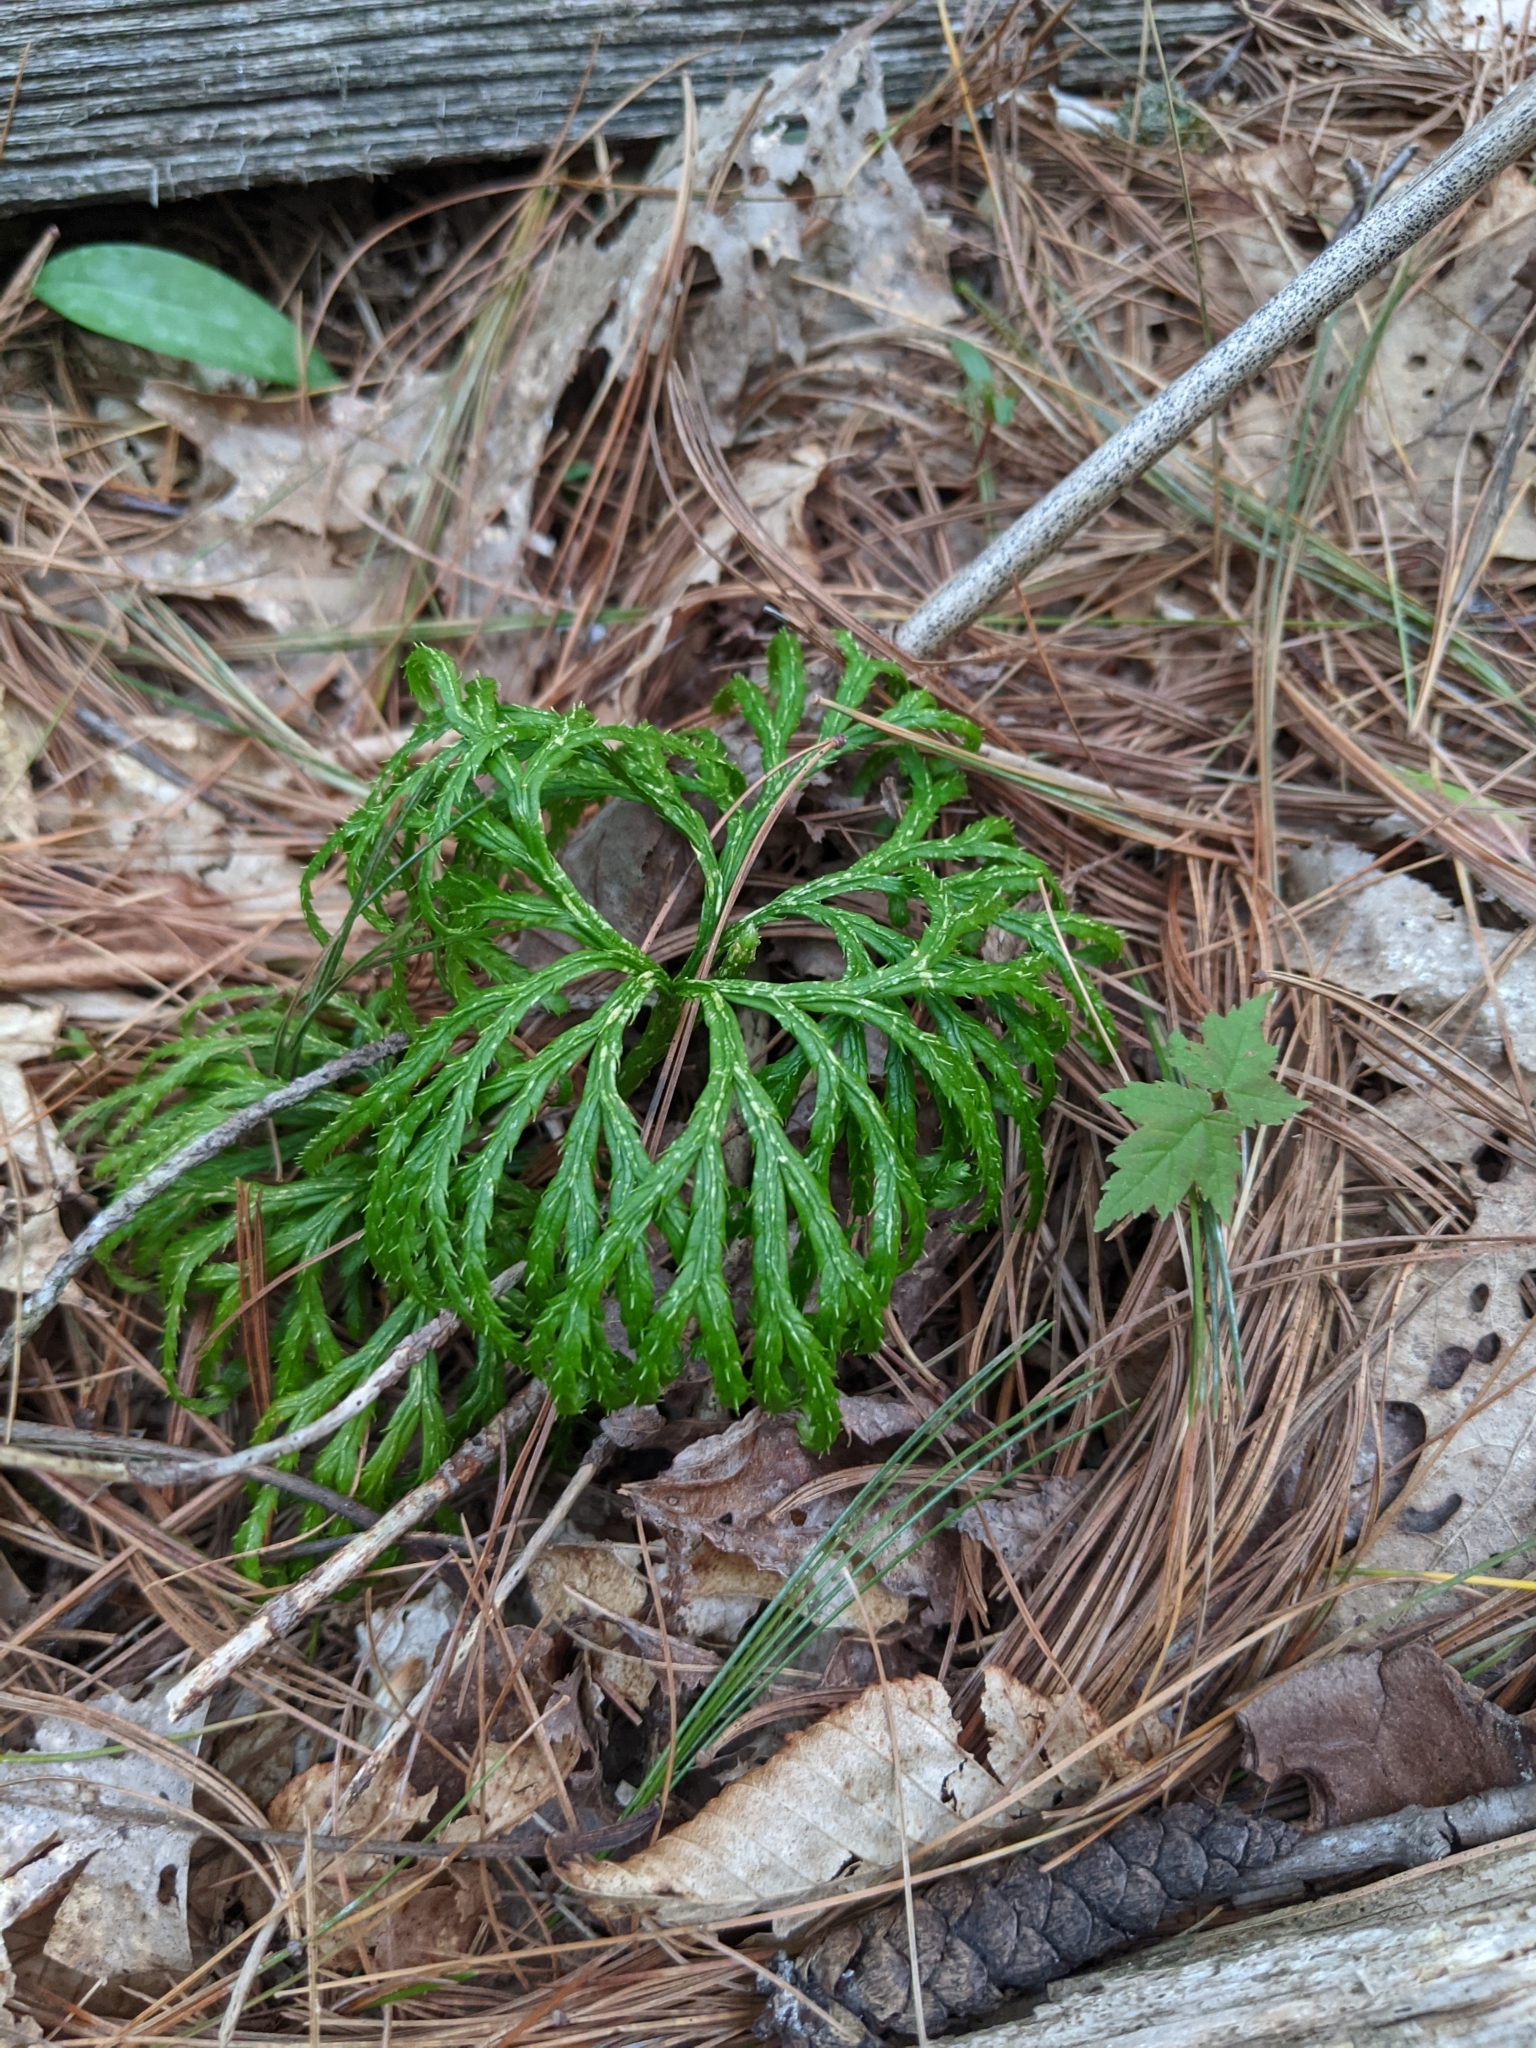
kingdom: Plantae
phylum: Tracheophyta
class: Lycopodiopsida
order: Lycopodiales
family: Lycopodiaceae
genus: Diphasiastrum
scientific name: Diphasiastrum digitatum
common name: Southern running-pine
